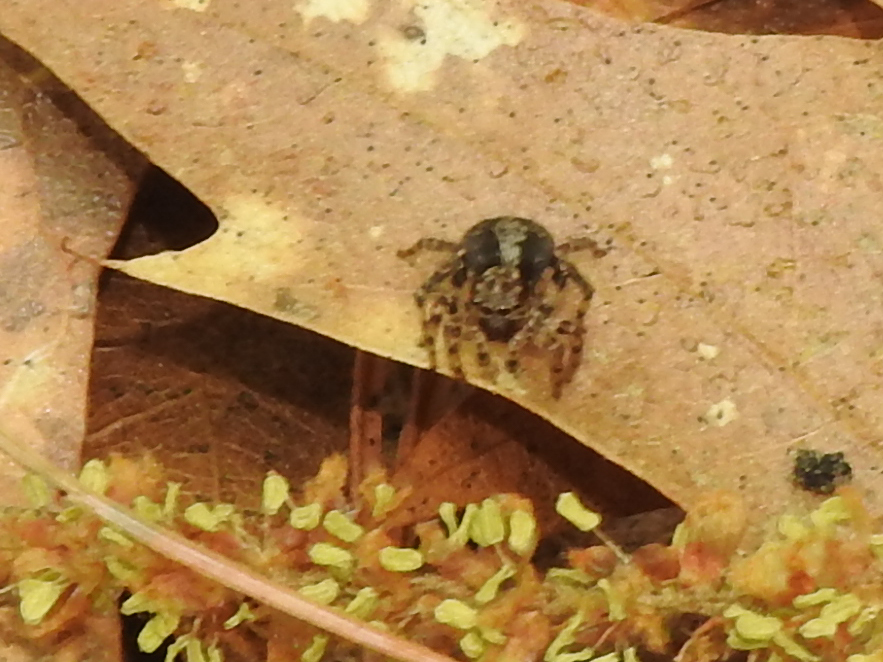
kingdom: Animalia
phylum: Arthropoda
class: Arachnida
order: Araneae
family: Salticidae
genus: Naphrys
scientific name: Naphrys pulex
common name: Flea jumping spider
